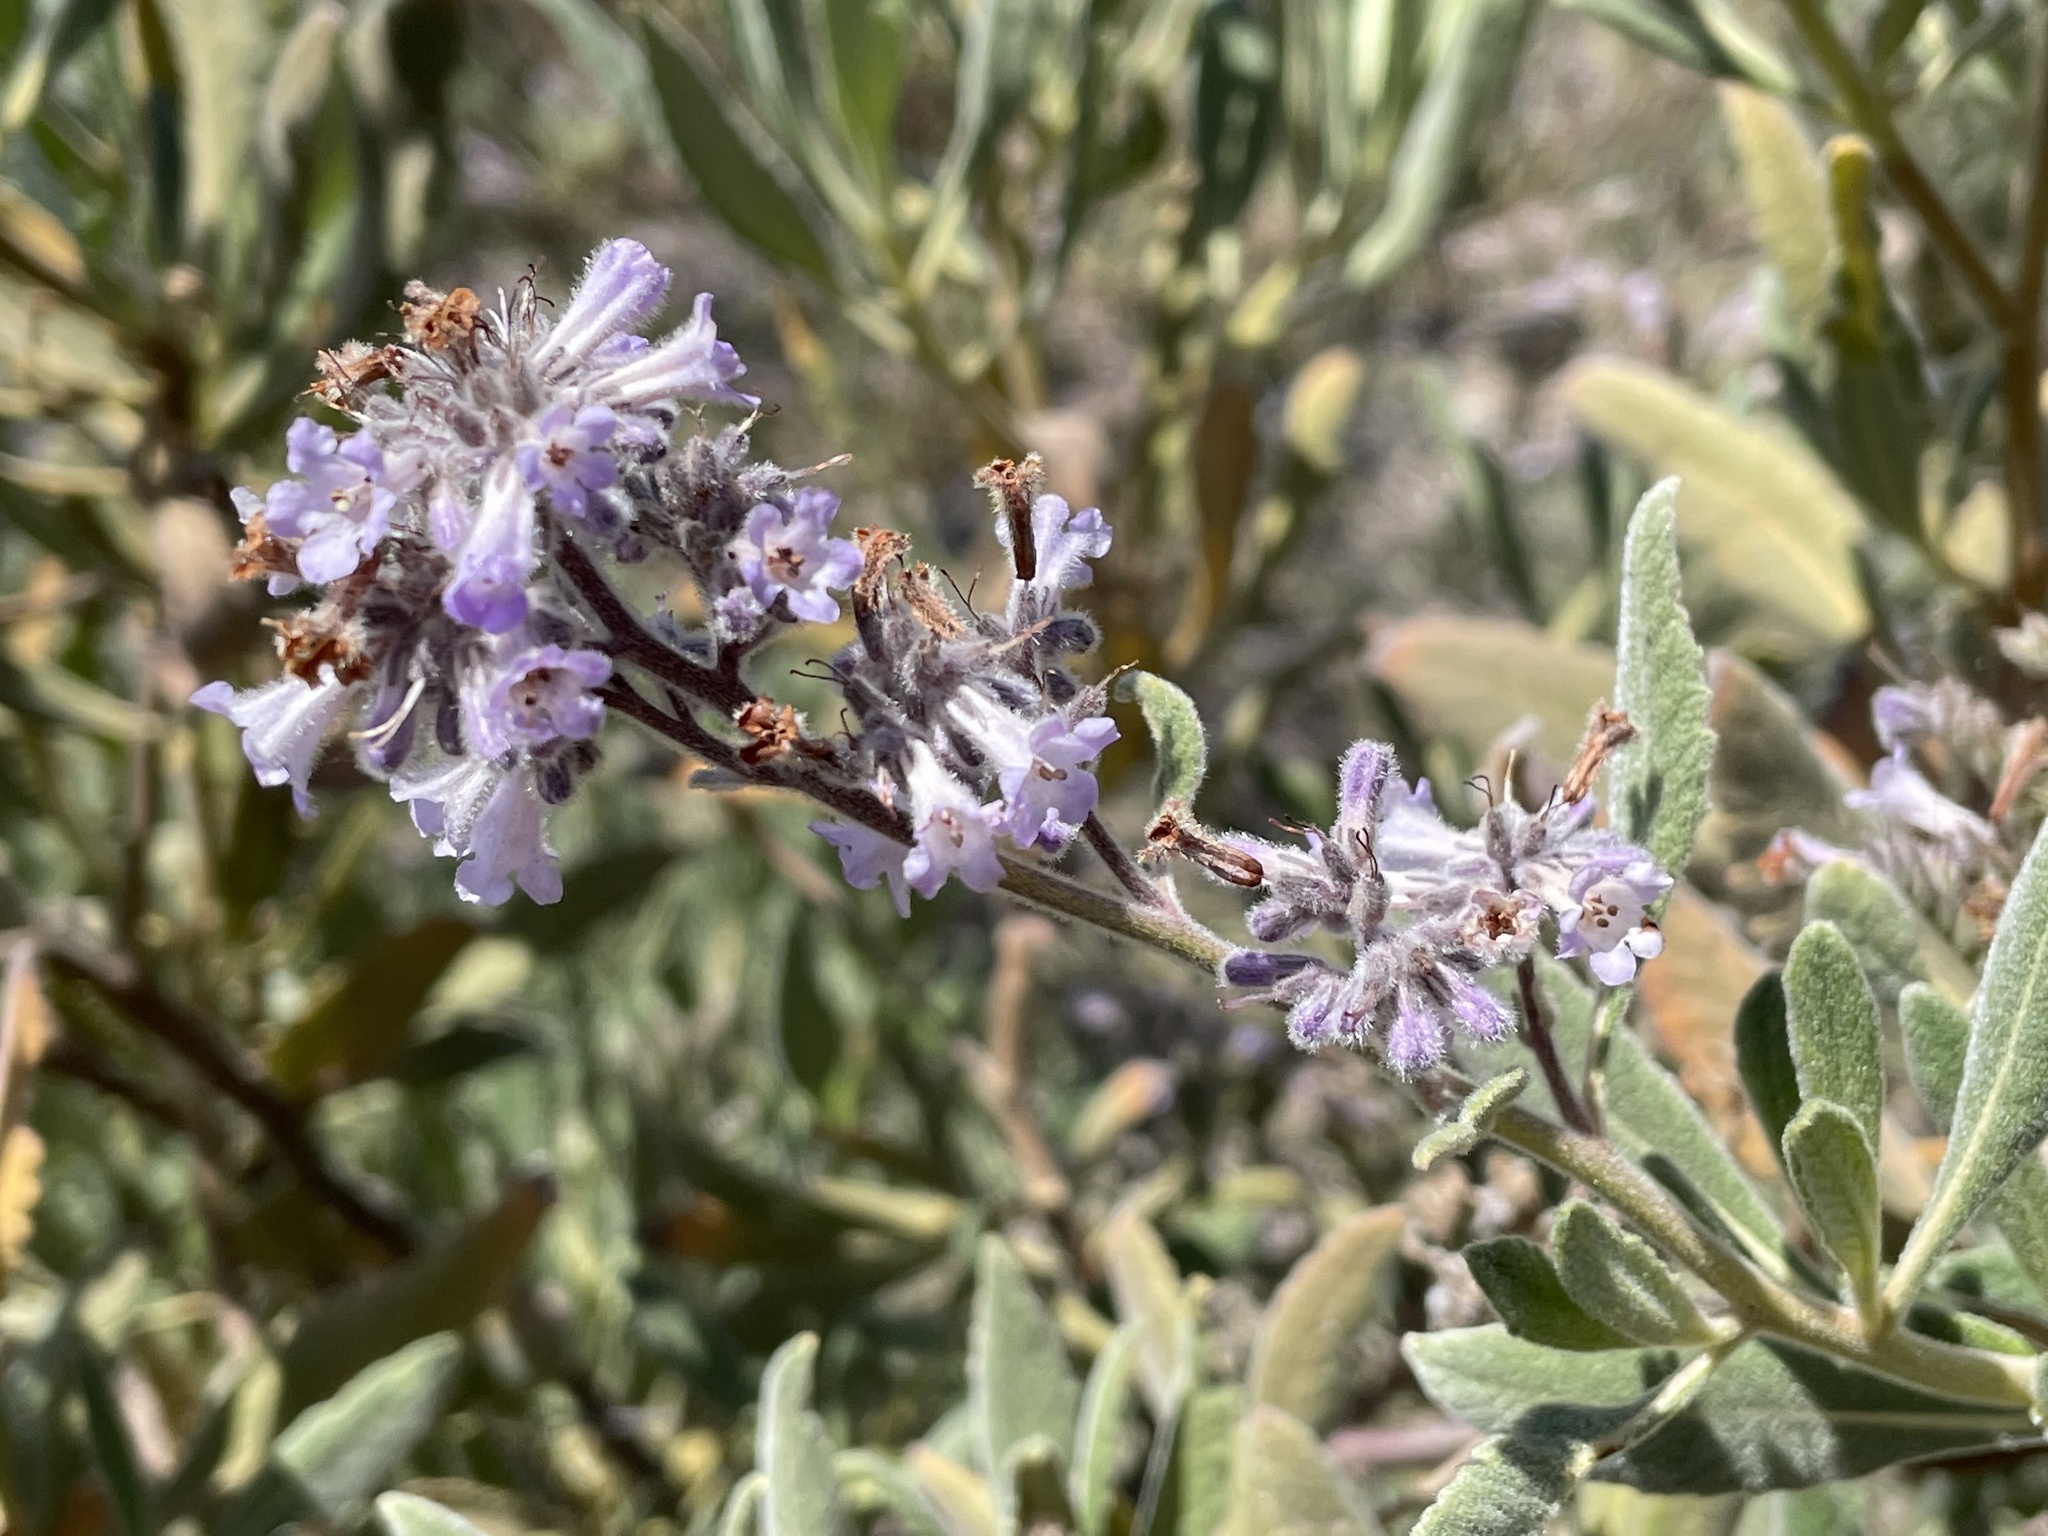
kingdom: Plantae
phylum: Tracheophyta
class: Magnoliopsida
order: Boraginales
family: Namaceae
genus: Eriodictyon
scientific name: Eriodictyon crassifolium
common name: Thick-leaf yerba-santa
